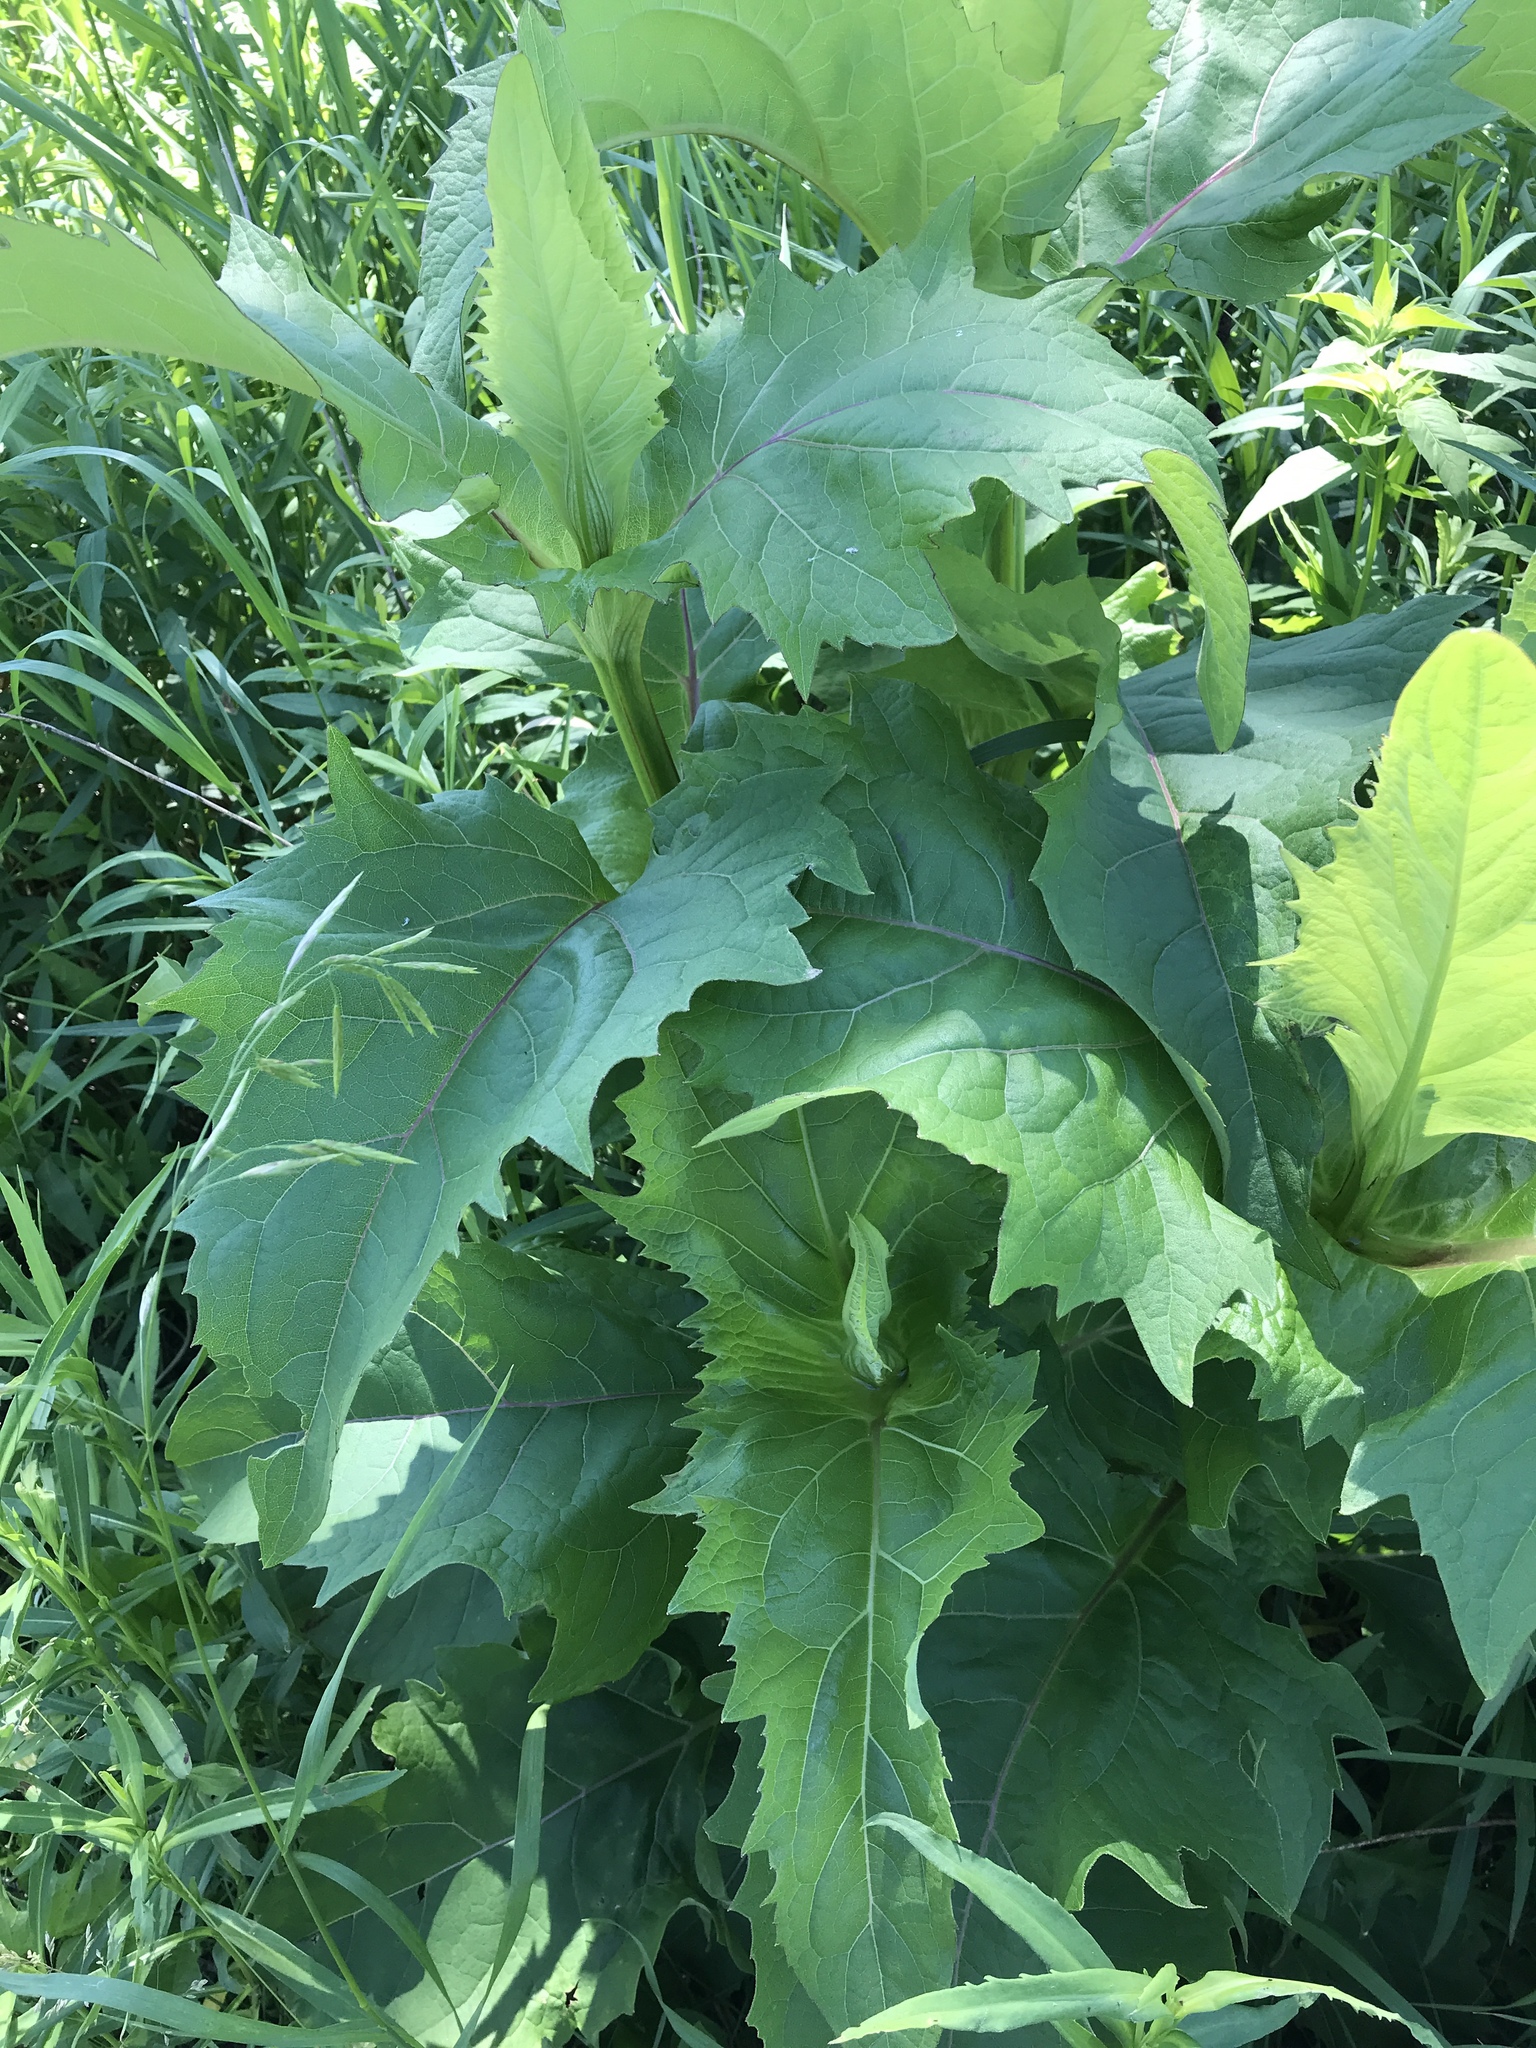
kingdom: Plantae
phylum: Tracheophyta
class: Magnoliopsida
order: Asterales
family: Asteraceae
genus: Silphium
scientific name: Silphium perfoliatum
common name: Cup-plant
